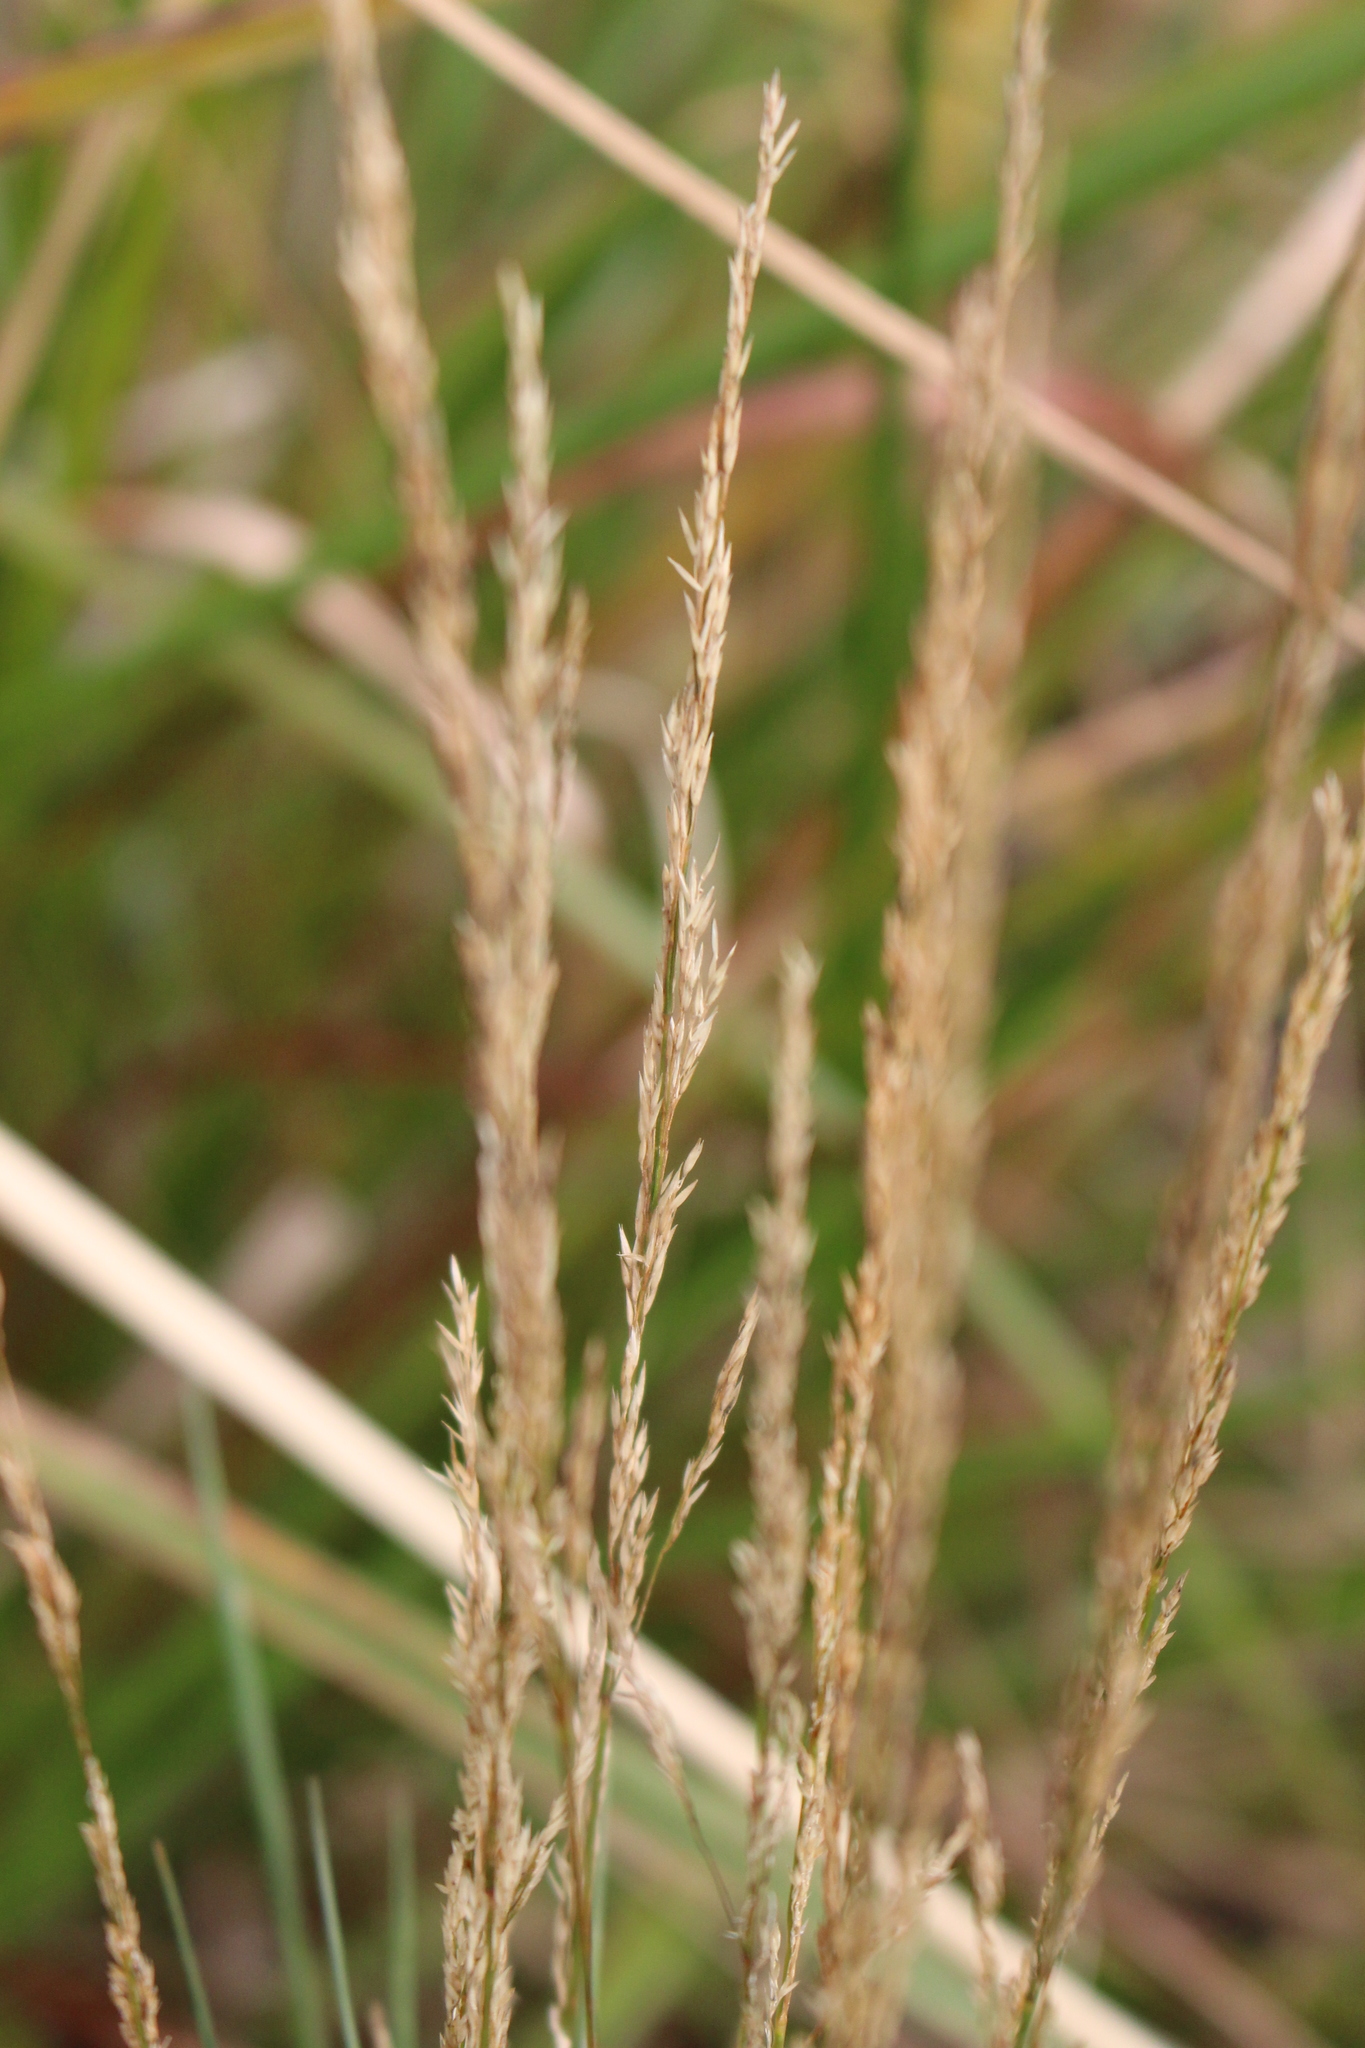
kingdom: Plantae
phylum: Tracheophyta
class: Liliopsida
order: Poales
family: Poaceae
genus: Agrostis
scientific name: Agrostis stolonifera
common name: Creeping bentgrass
